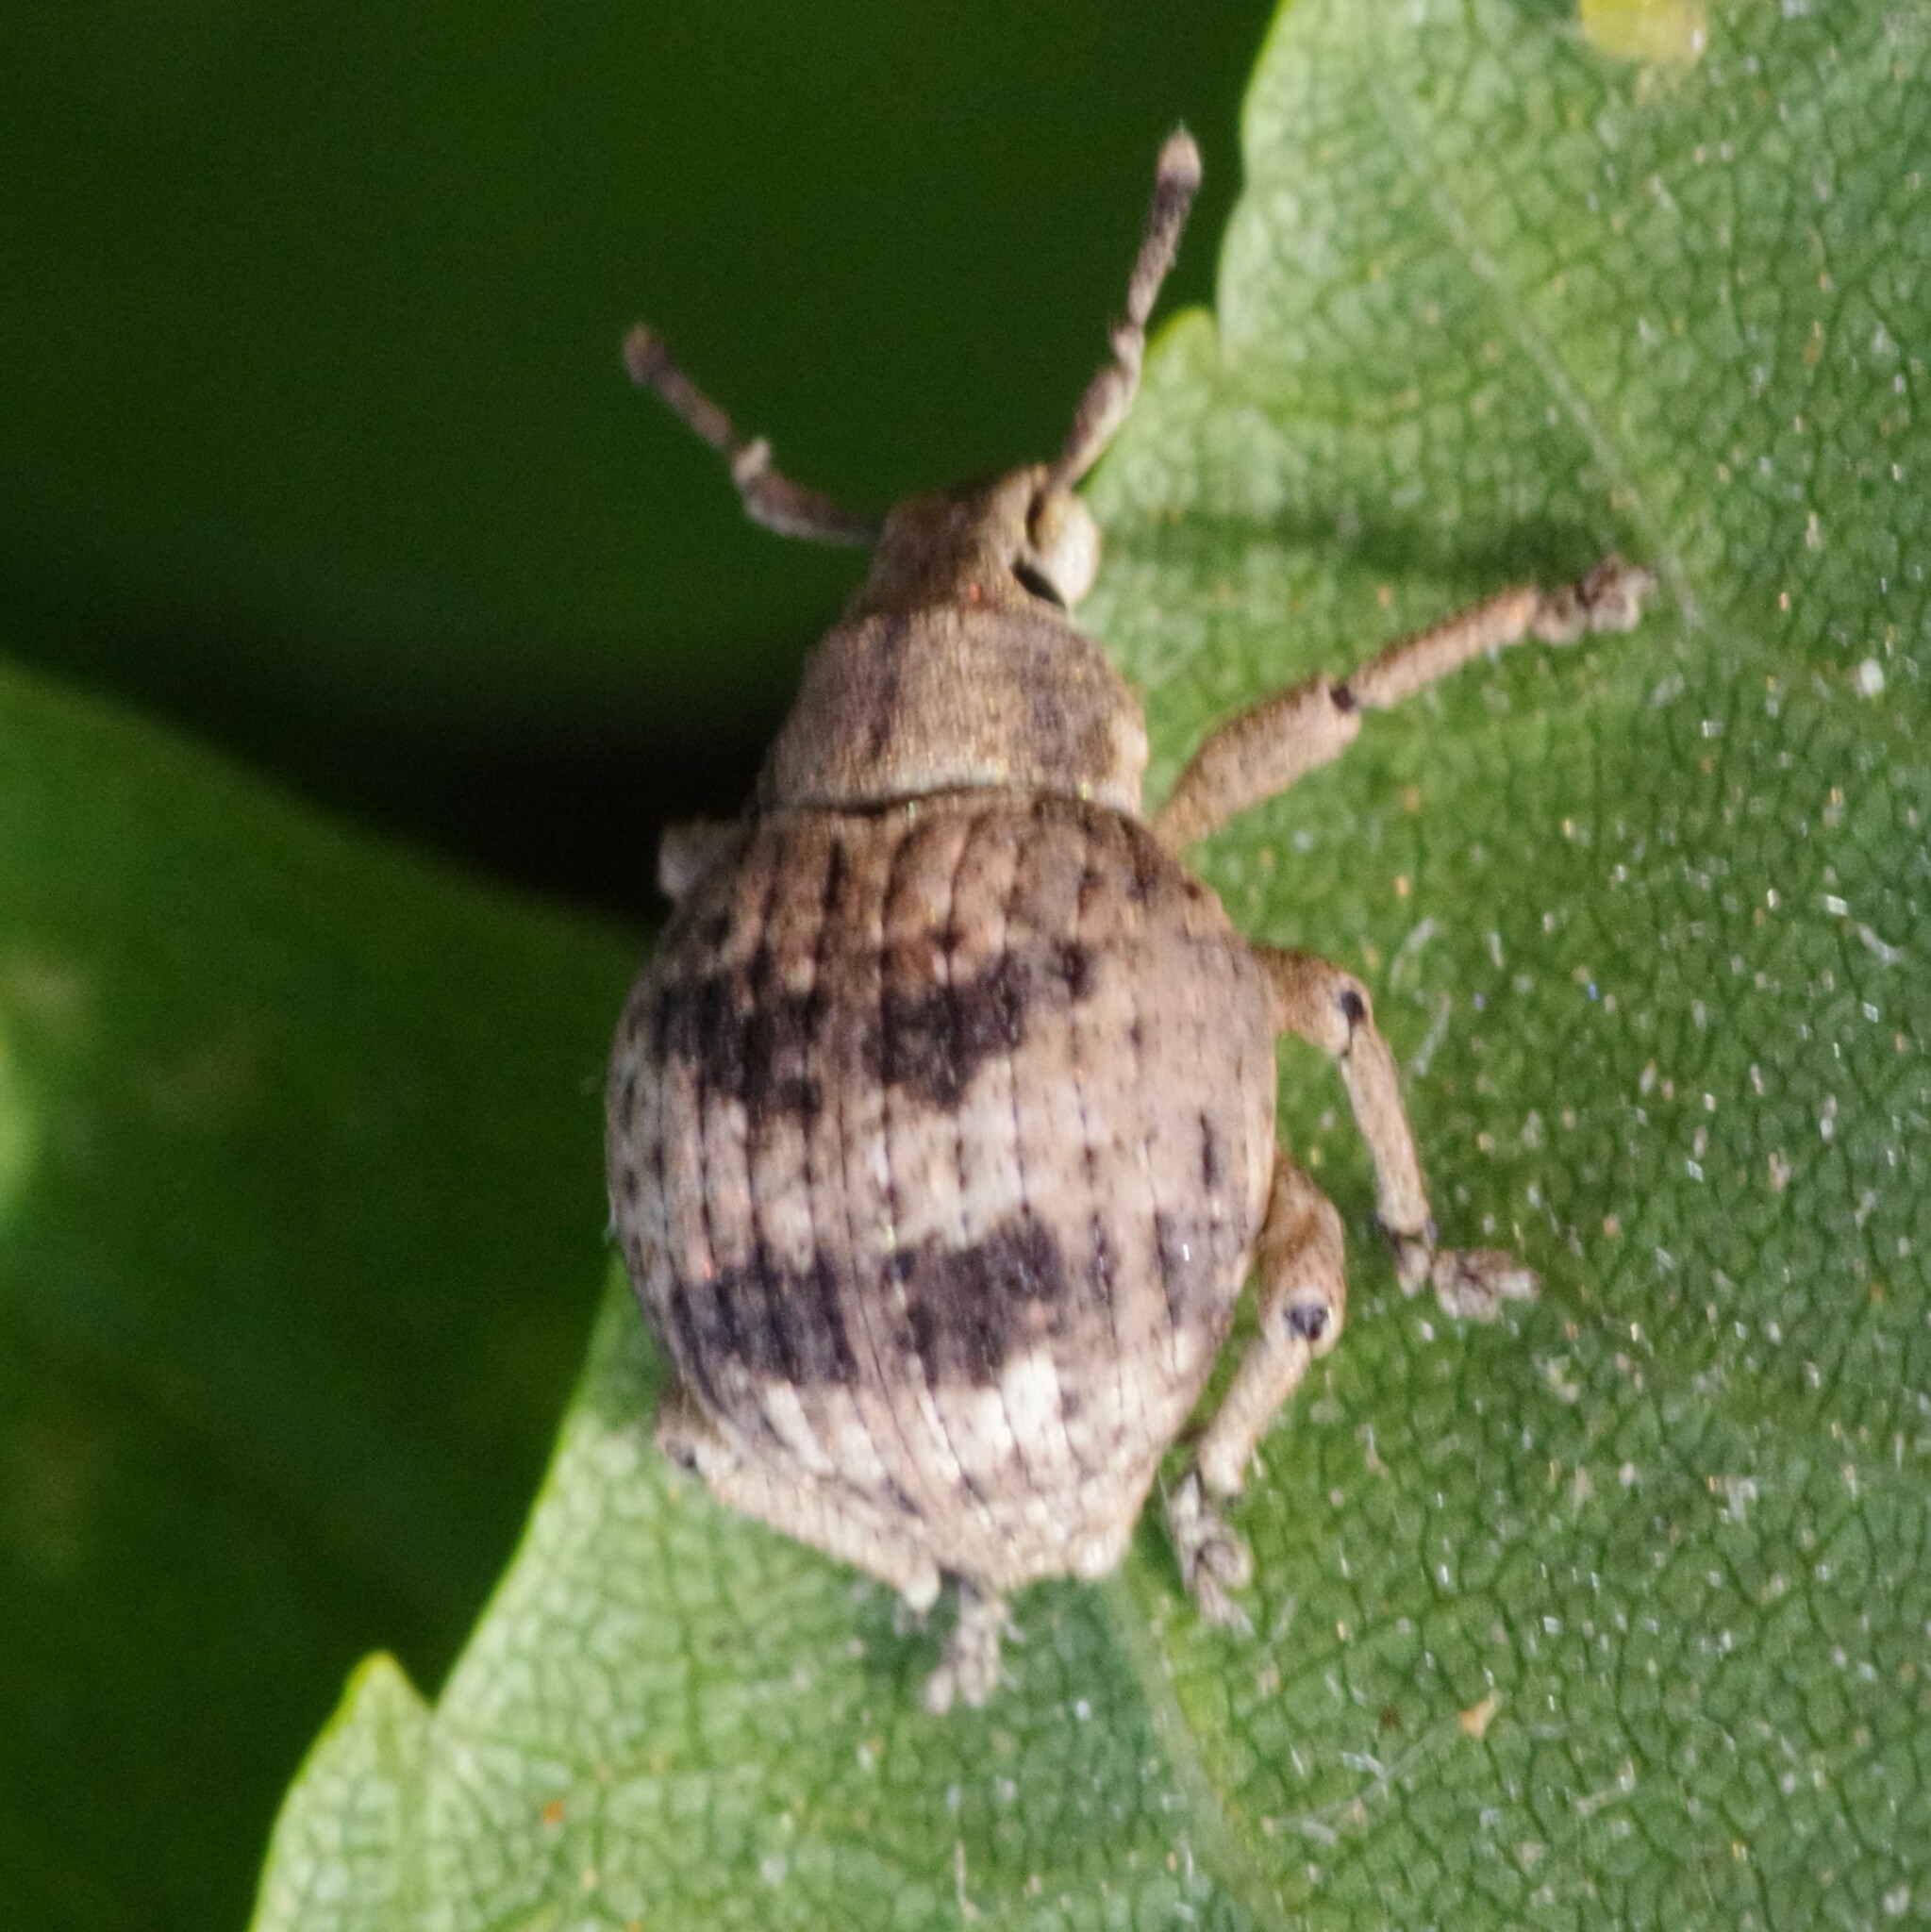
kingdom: Animalia
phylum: Arthropoda
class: Insecta
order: Coleoptera
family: Curculionidae
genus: Pseudocneorhinus
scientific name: Pseudocneorhinus bifasciatus
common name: Two-banded japanese weevil
